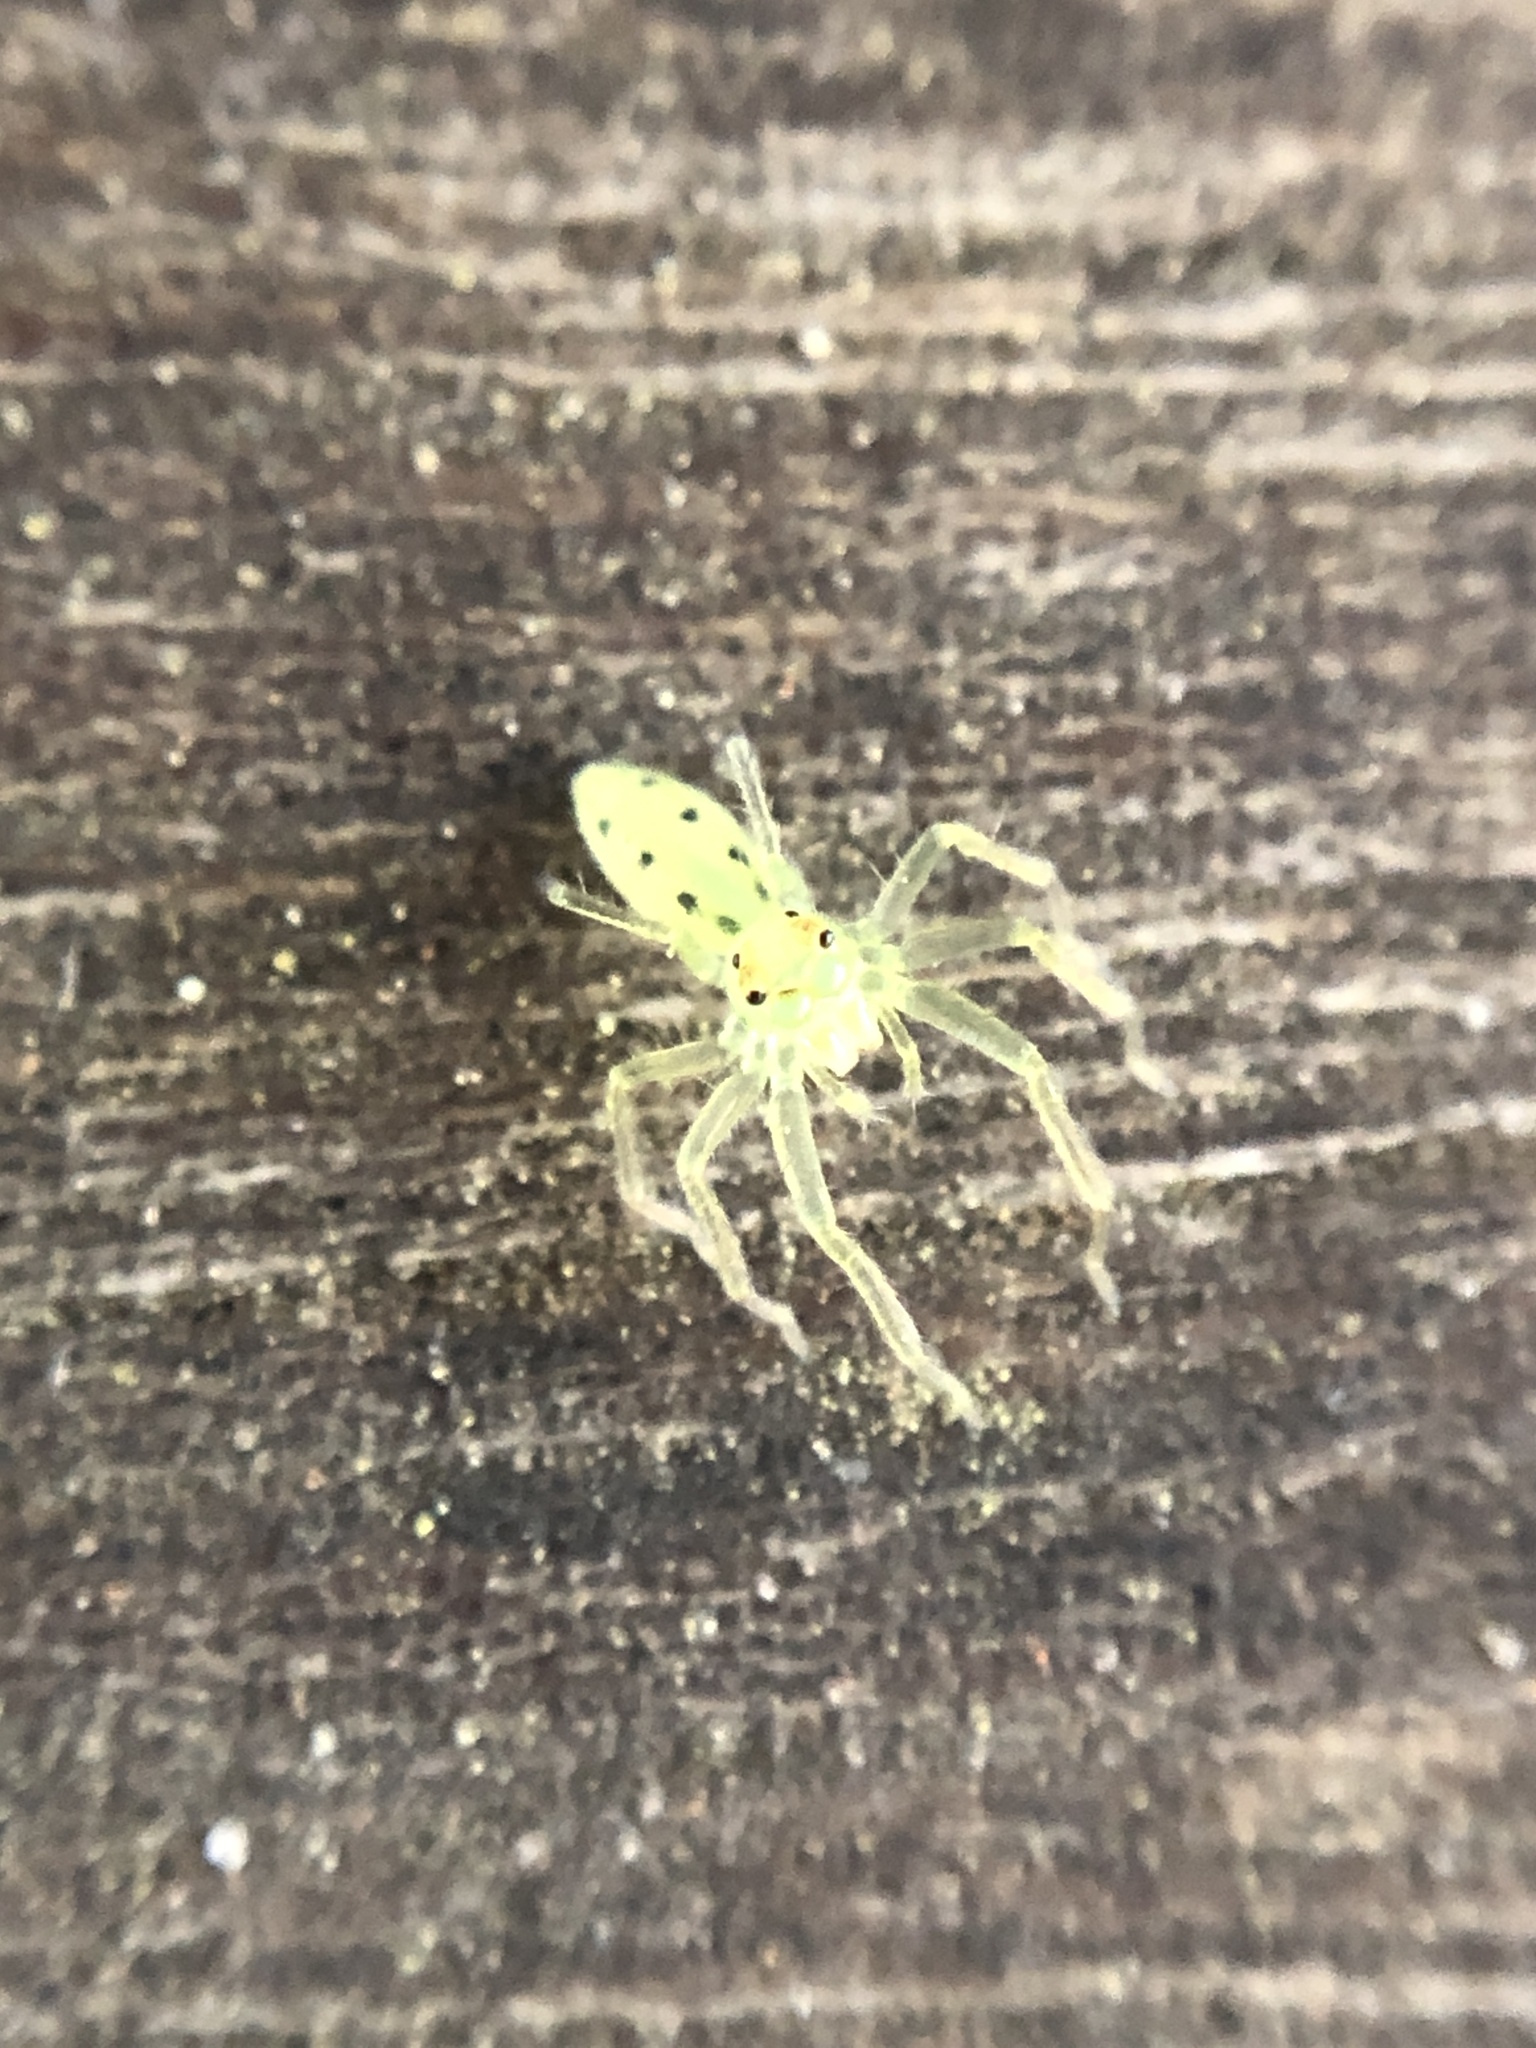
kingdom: Animalia
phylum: Arthropoda
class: Arachnida
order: Araneae
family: Salticidae
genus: Lyssomanes
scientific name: Lyssomanes viridis
